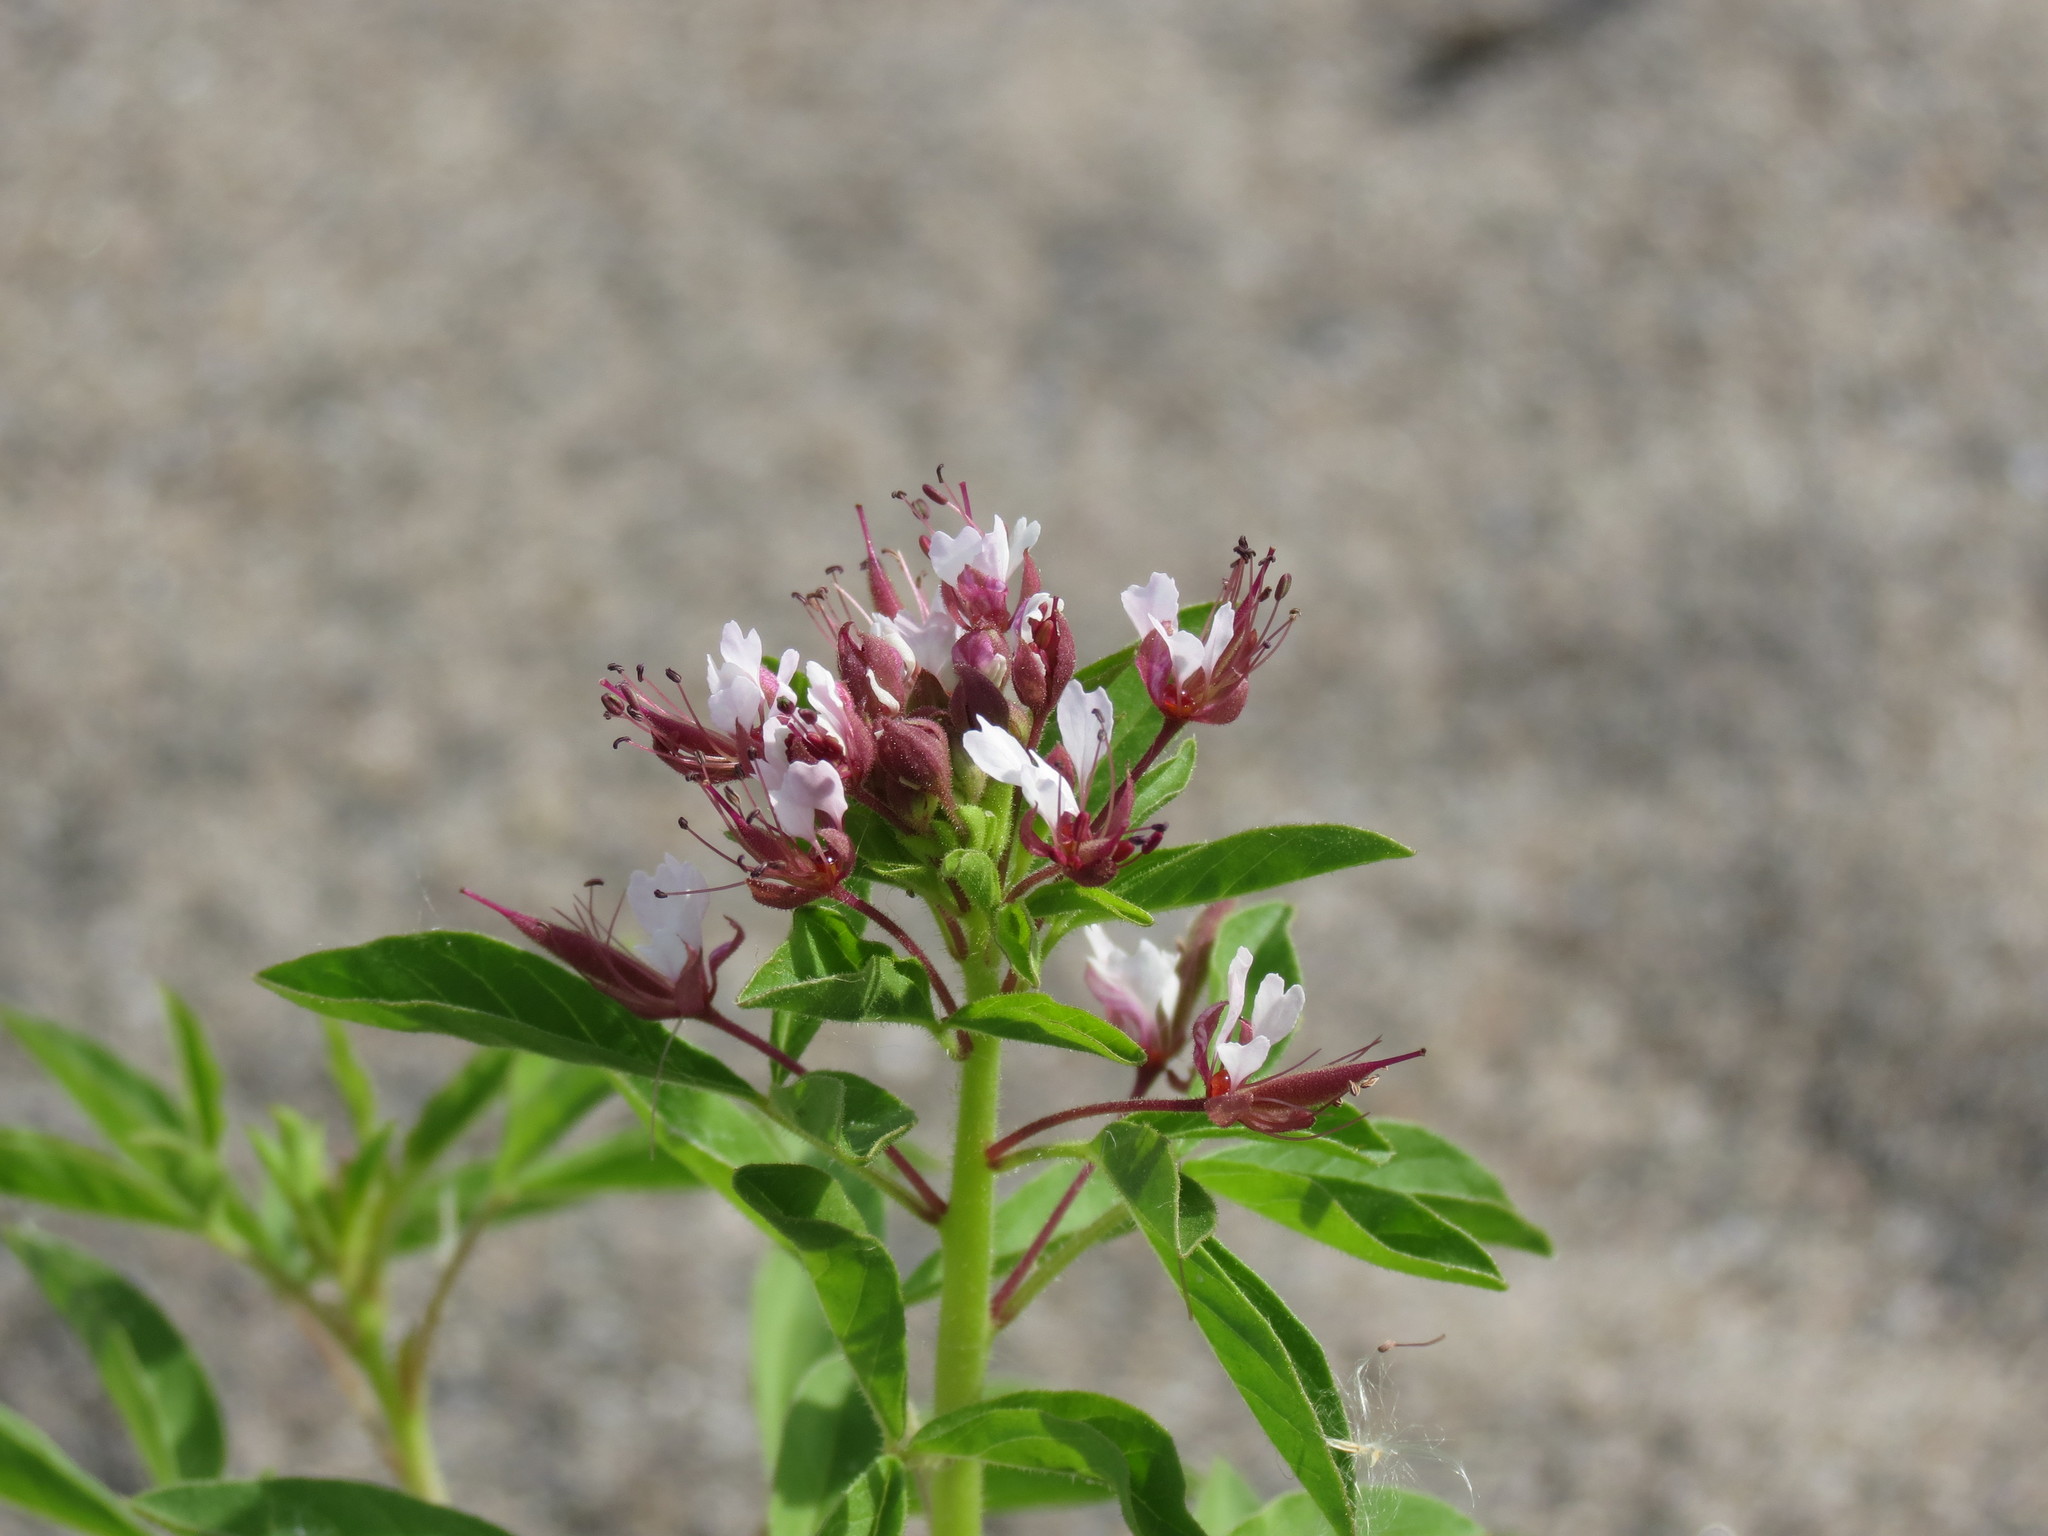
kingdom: Plantae
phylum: Tracheophyta
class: Magnoliopsida
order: Brassicales
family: Cleomaceae
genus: Polanisia
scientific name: Polanisia dodecandra
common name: Clammyweed
